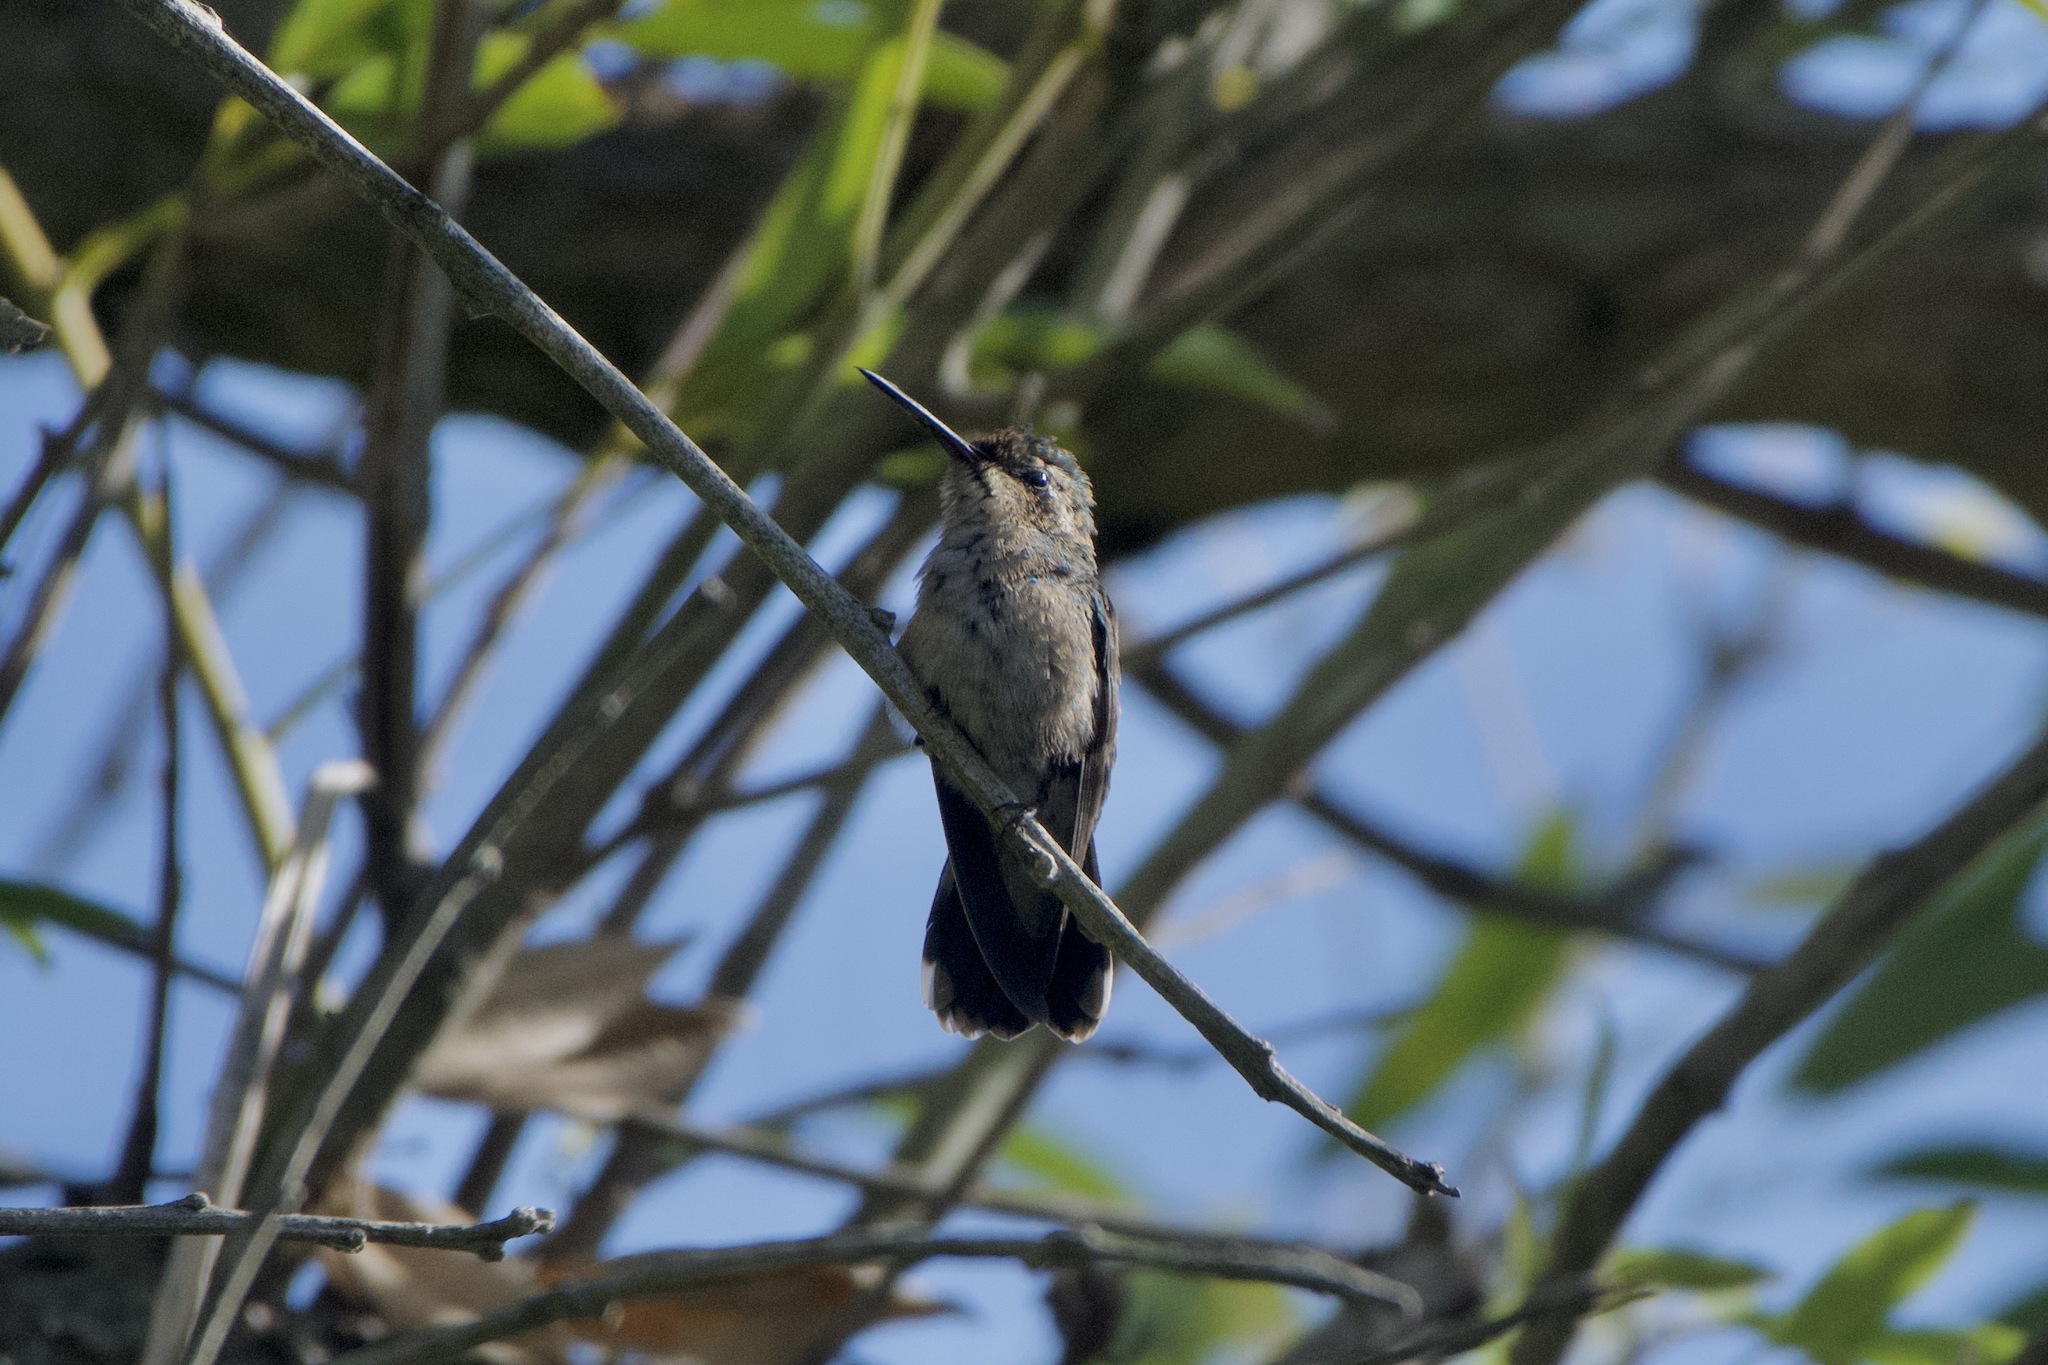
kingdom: Animalia
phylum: Chordata
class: Aves
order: Apodiformes
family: Trochilidae
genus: Chlorostilbon
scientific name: Chlorostilbon lucidus
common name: Glittering-bellied emerald
